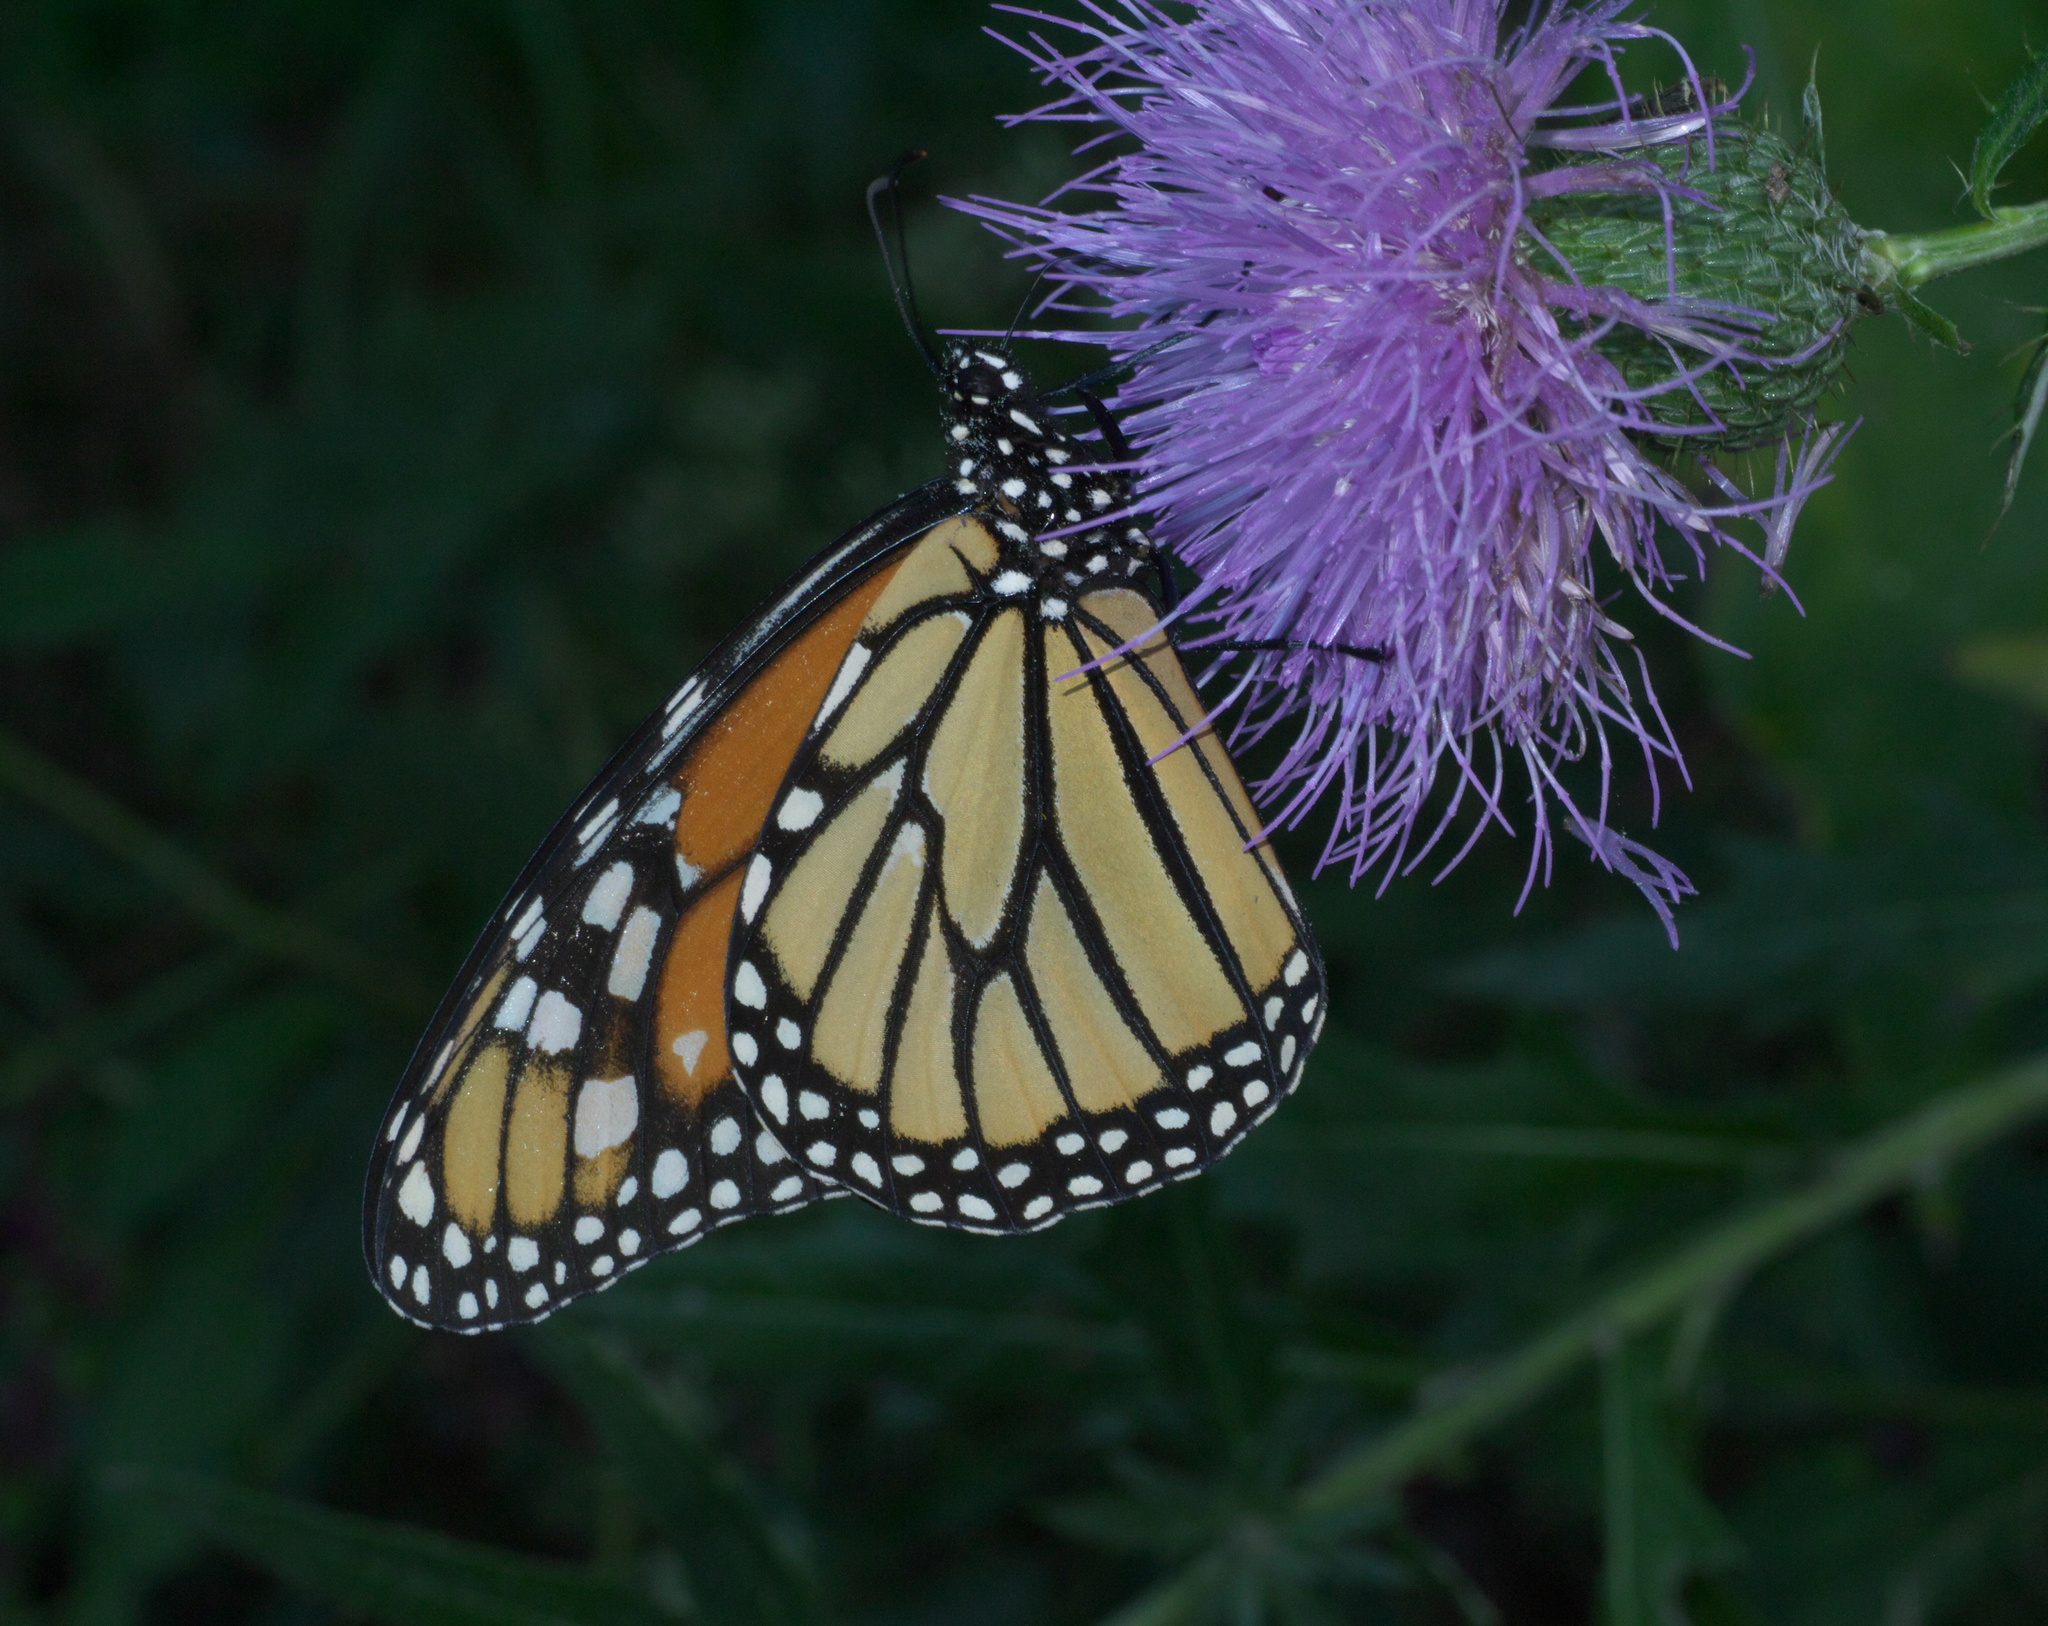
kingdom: Animalia
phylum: Arthropoda
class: Insecta
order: Lepidoptera
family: Nymphalidae
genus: Danaus
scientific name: Danaus plexippus
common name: Monarch
